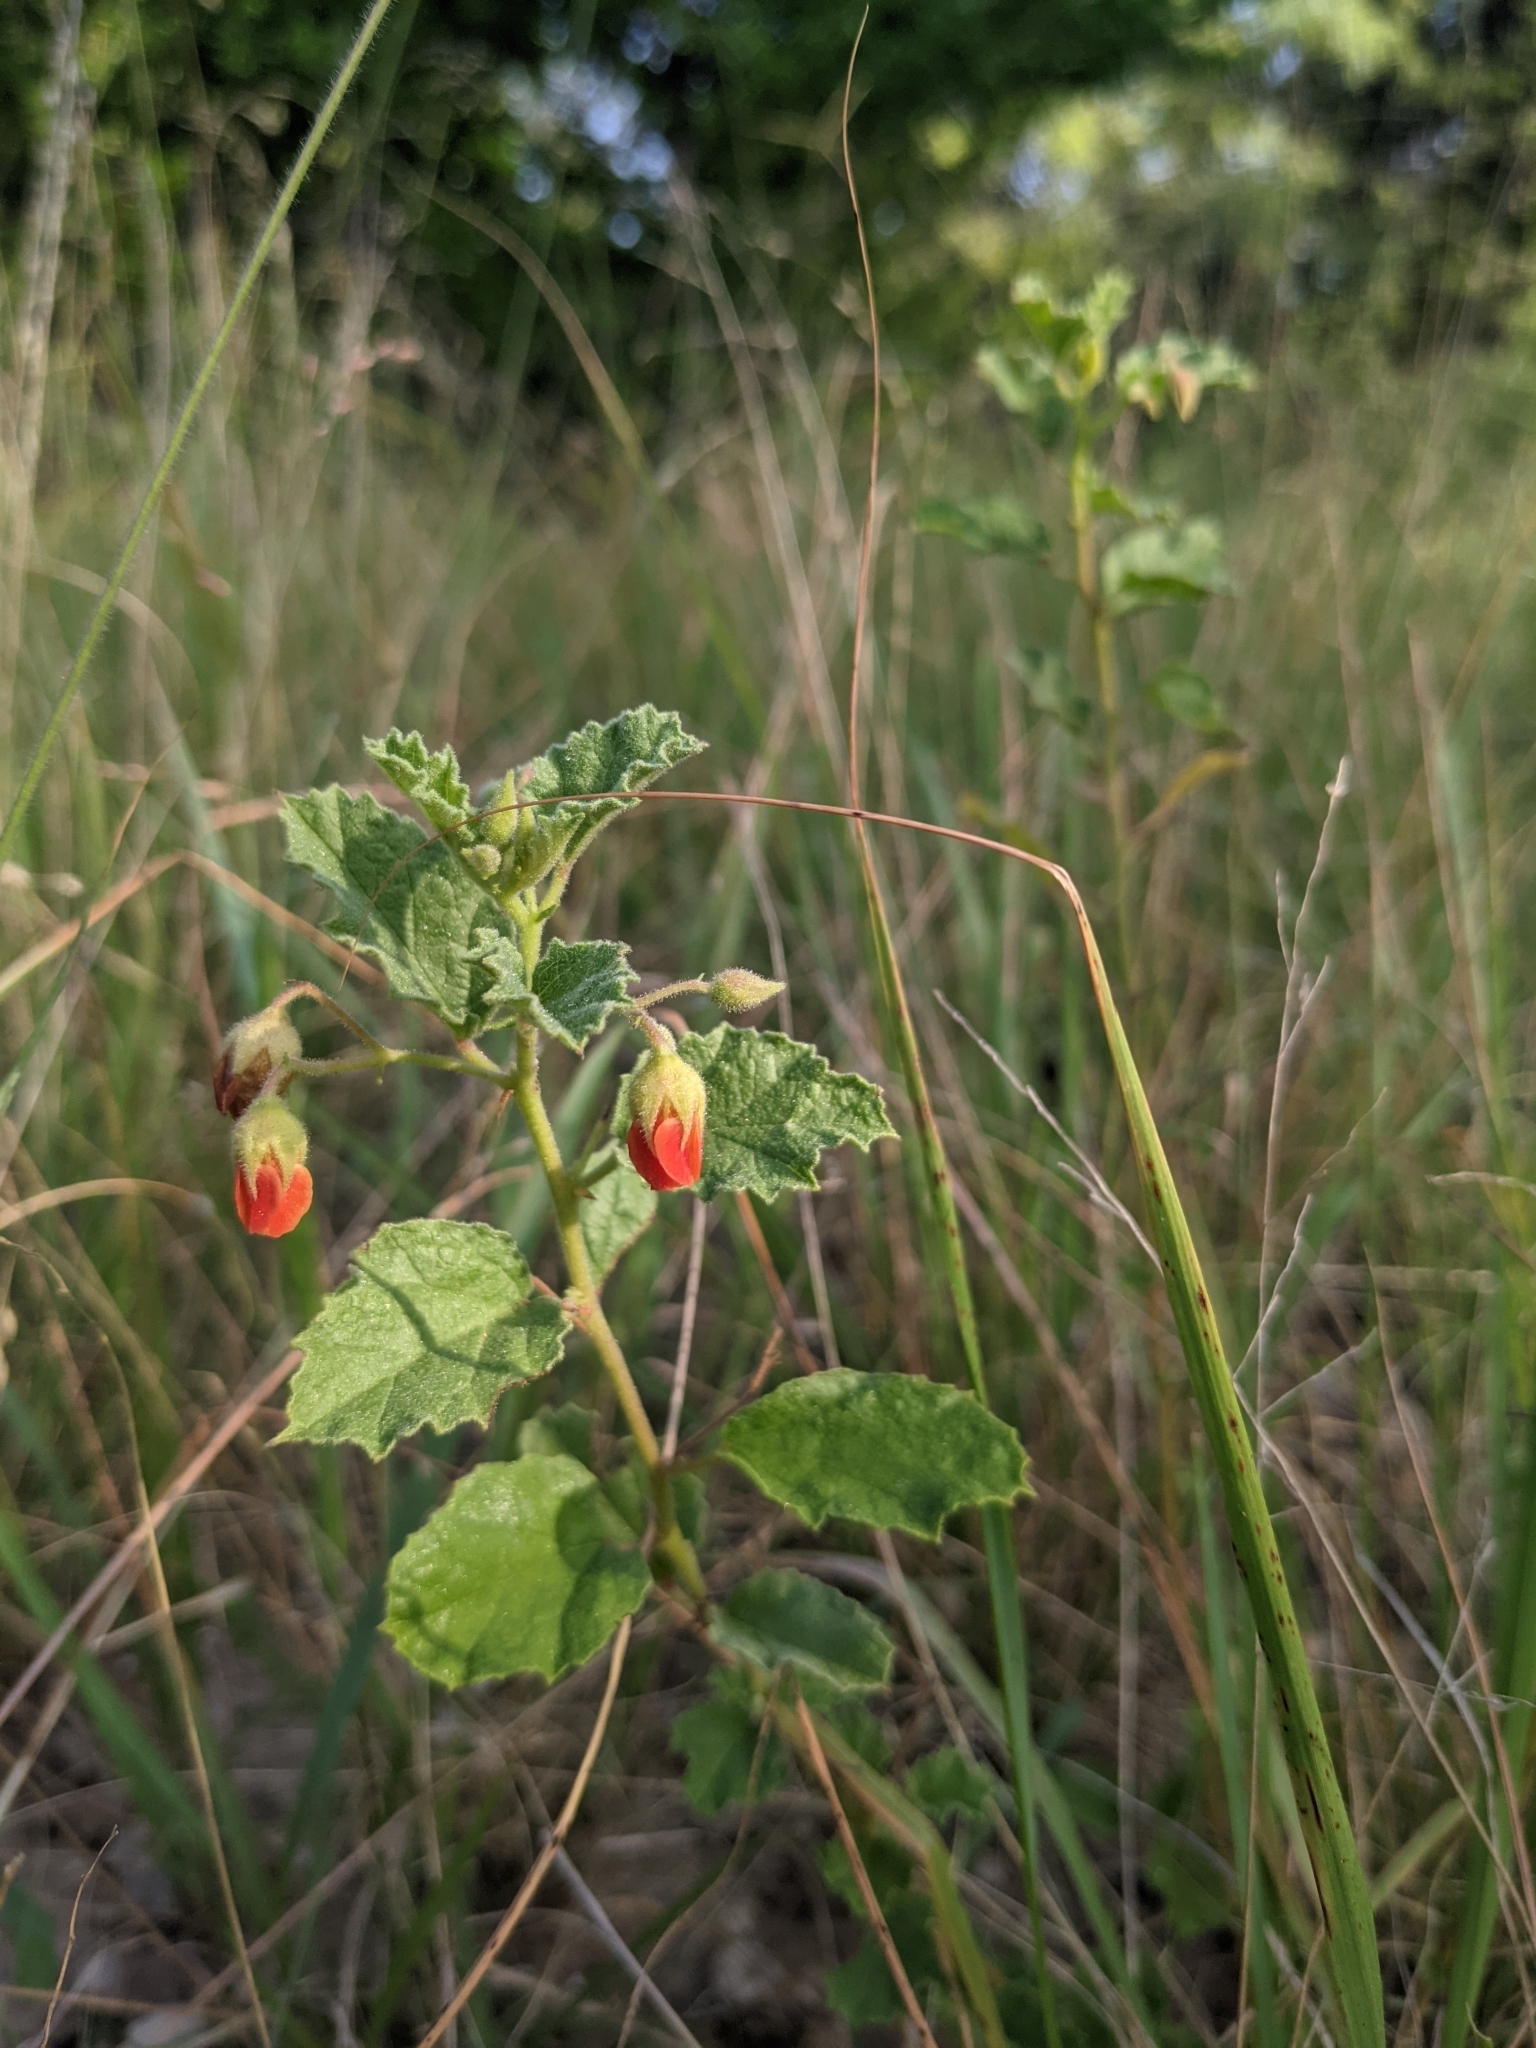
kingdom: Plantae
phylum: Tracheophyta
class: Magnoliopsida
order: Malvales
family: Malvaceae
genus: Hermannia
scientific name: Hermannia texana
